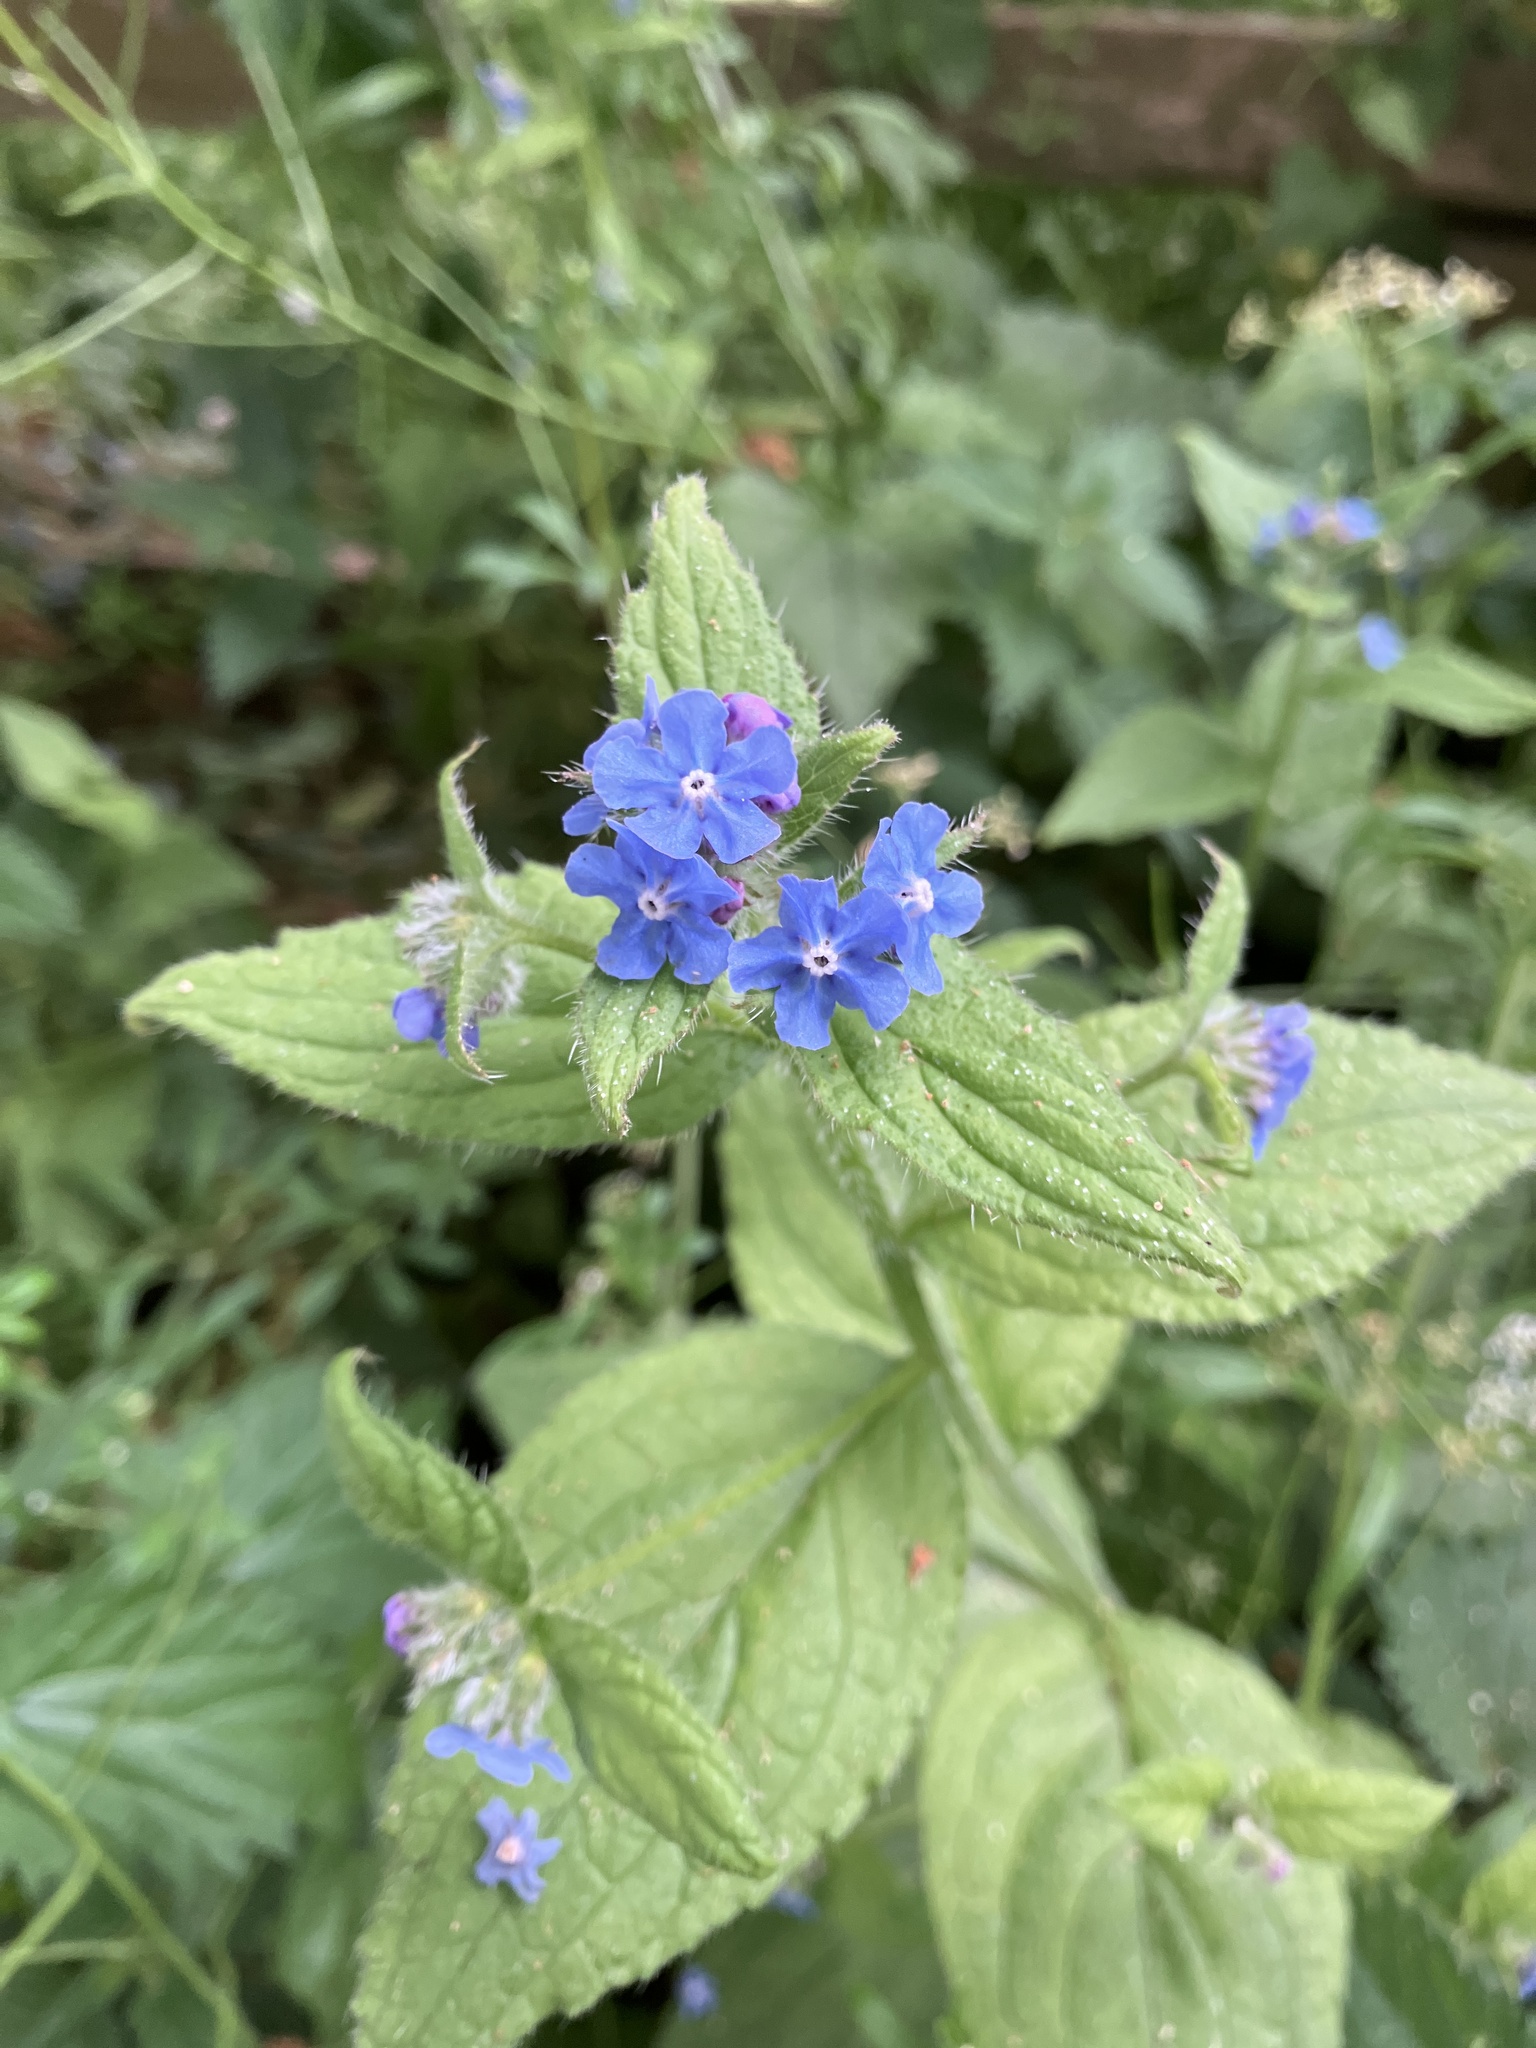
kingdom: Plantae
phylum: Tracheophyta
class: Magnoliopsida
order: Boraginales
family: Boraginaceae
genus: Pentaglottis
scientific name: Pentaglottis sempervirens
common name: Green alkanet
